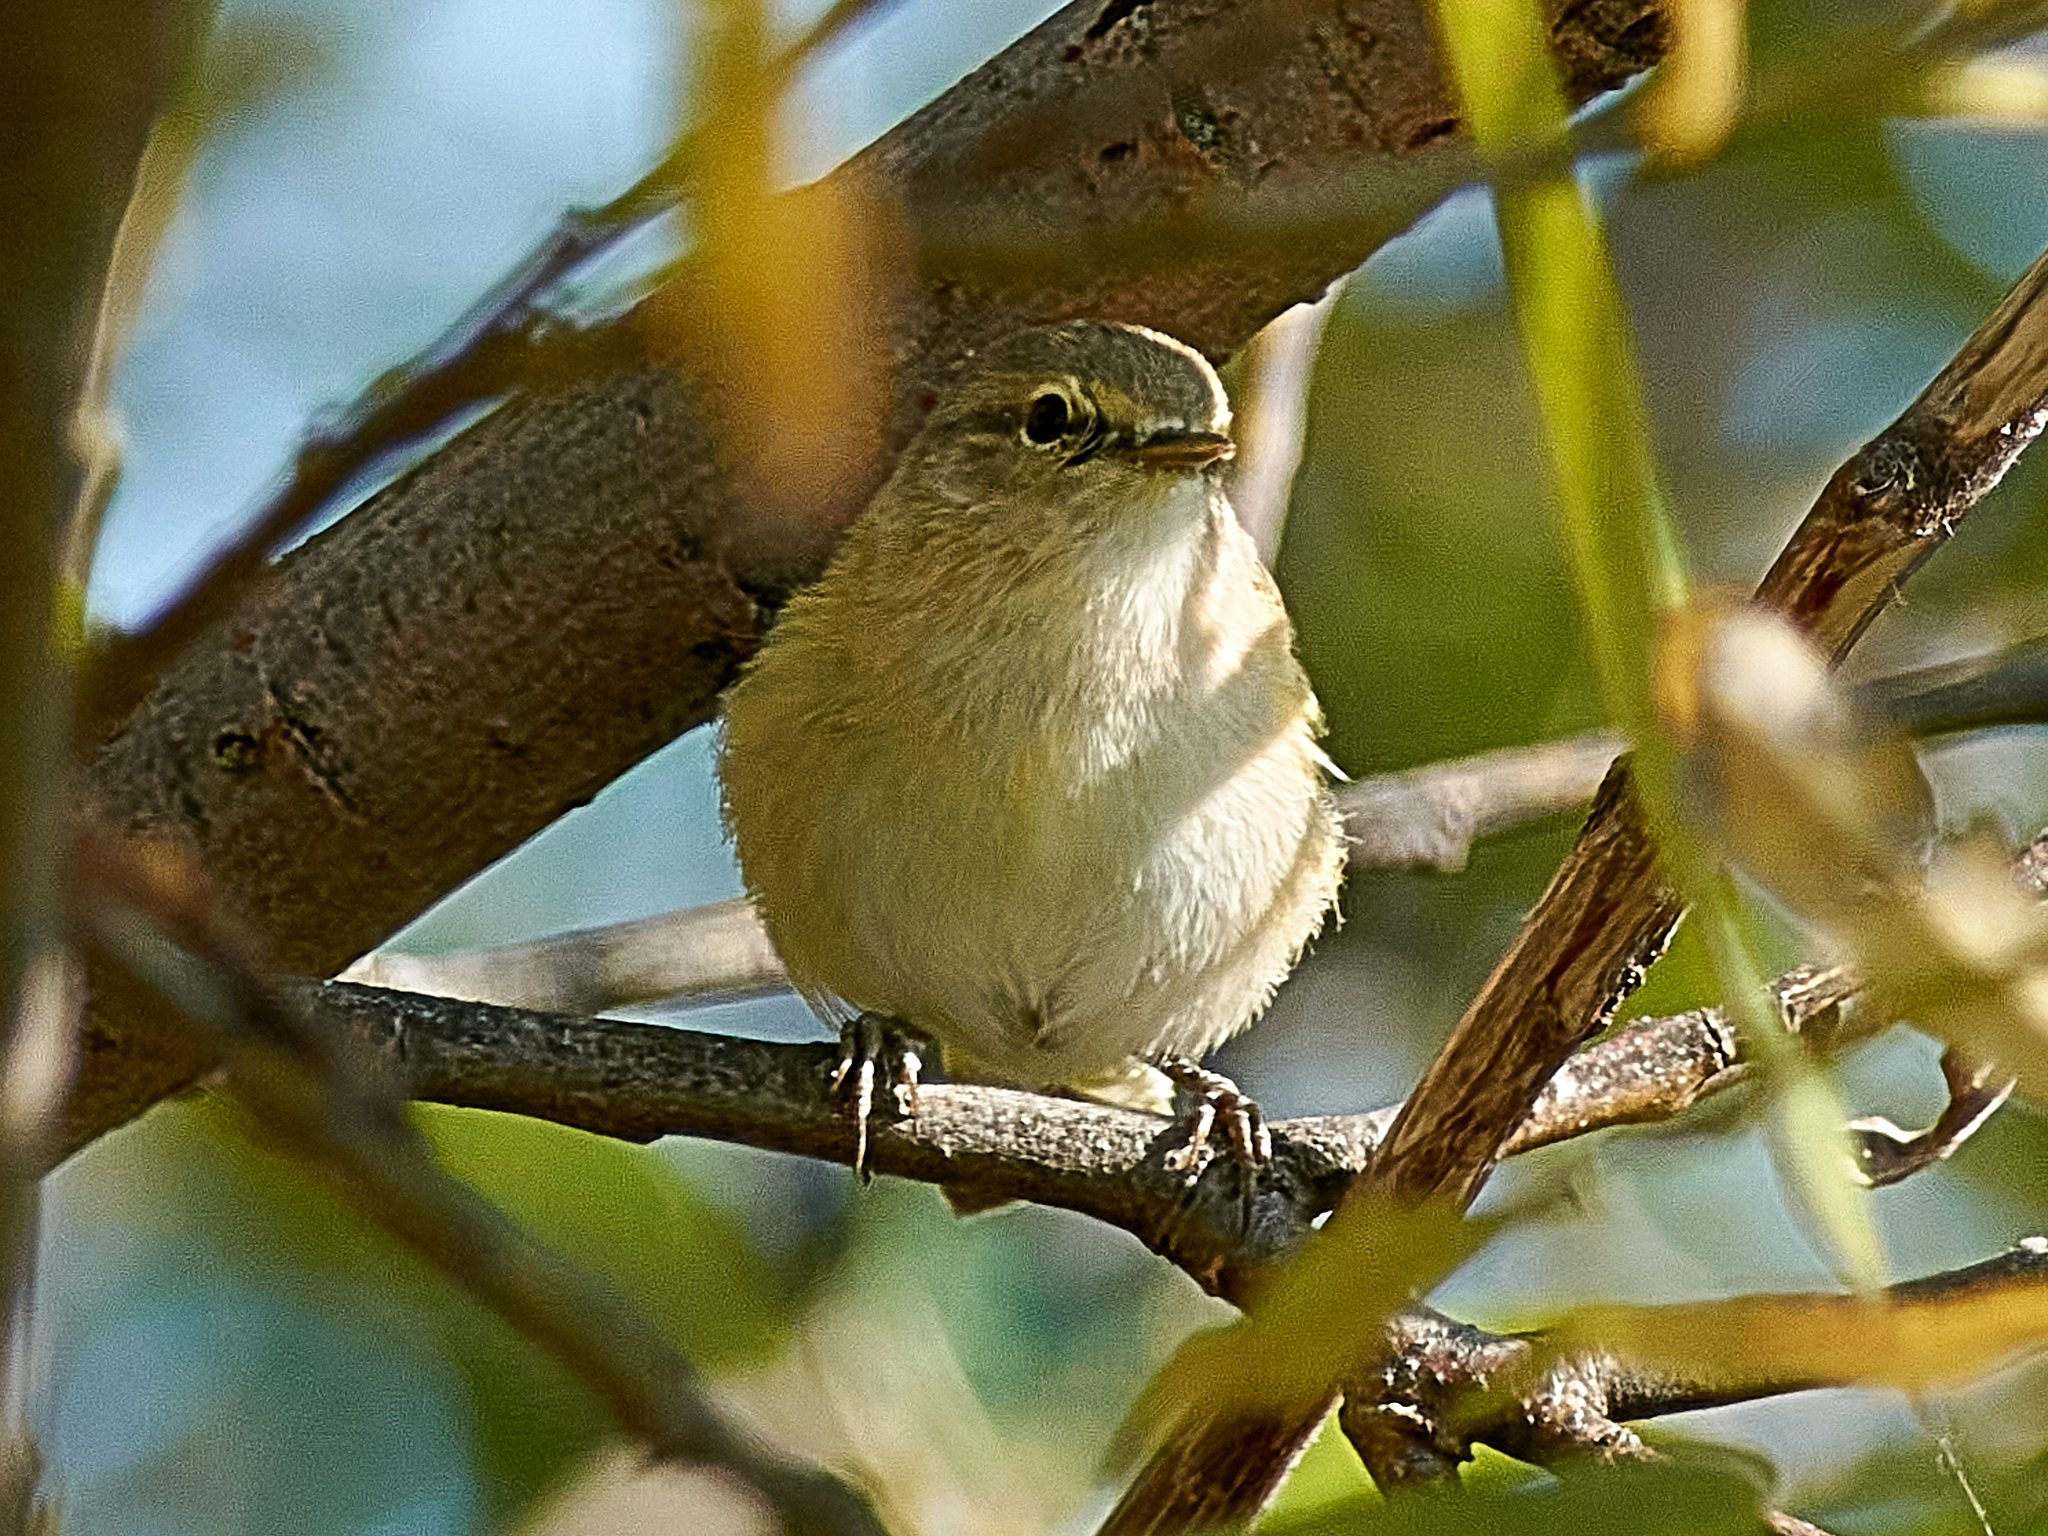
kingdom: Animalia
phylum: Chordata
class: Aves
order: Passeriformes
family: Phylloscopidae
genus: Phylloscopus
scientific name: Phylloscopus collybita
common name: Common chiffchaff
